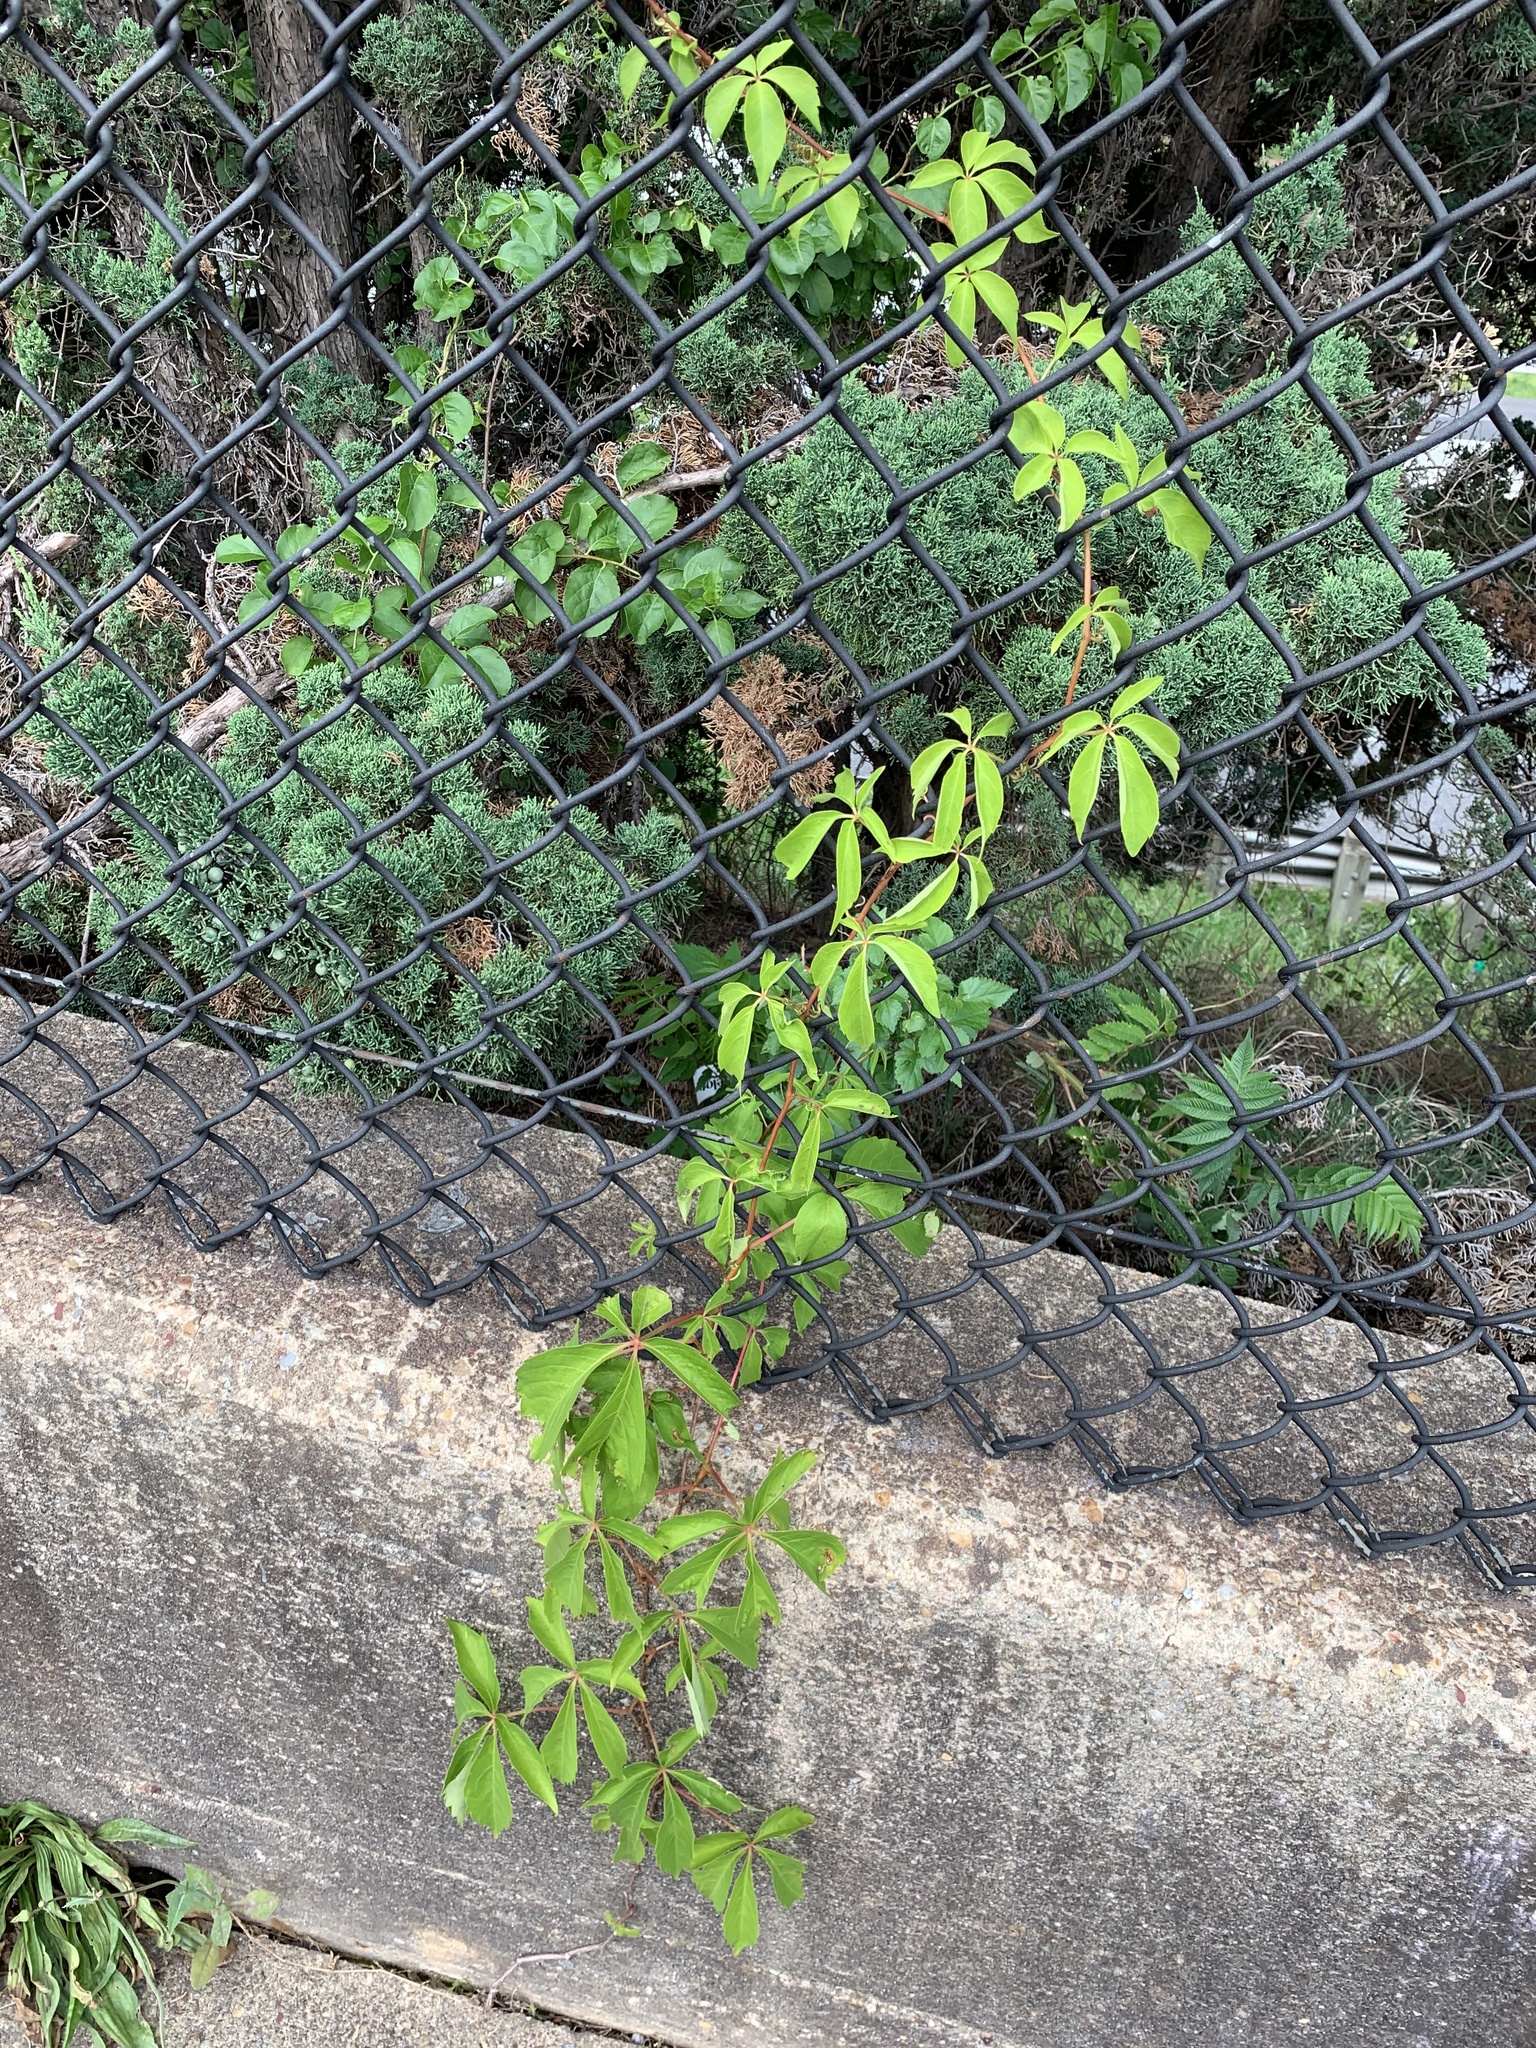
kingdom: Plantae
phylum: Tracheophyta
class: Magnoliopsida
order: Vitales
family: Vitaceae
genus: Parthenocissus
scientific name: Parthenocissus quinquefolia
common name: Virginia-creeper
